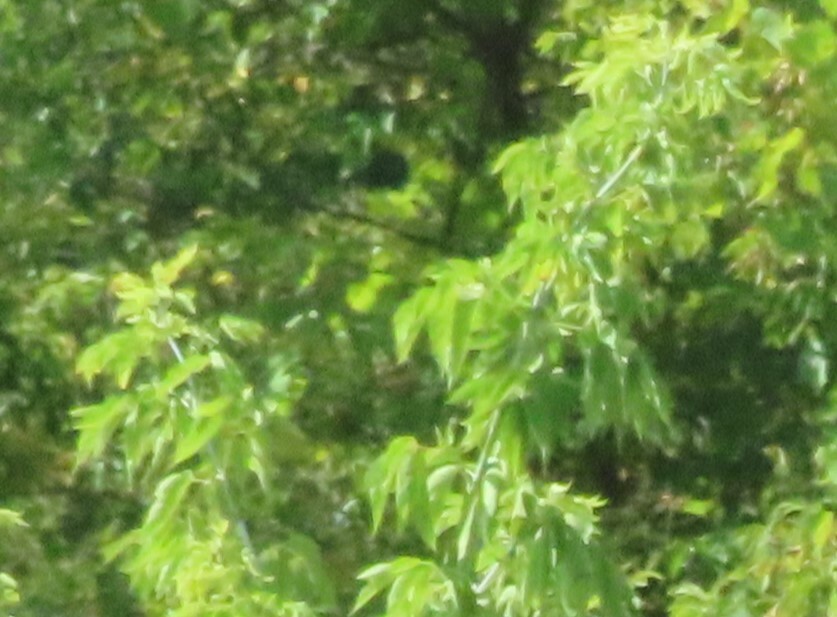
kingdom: Plantae
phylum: Tracheophyta
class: Magnoliopsida
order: Sapindales
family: Sapindaceae
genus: Acer
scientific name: Acer negundo
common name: Ashleaf maple
